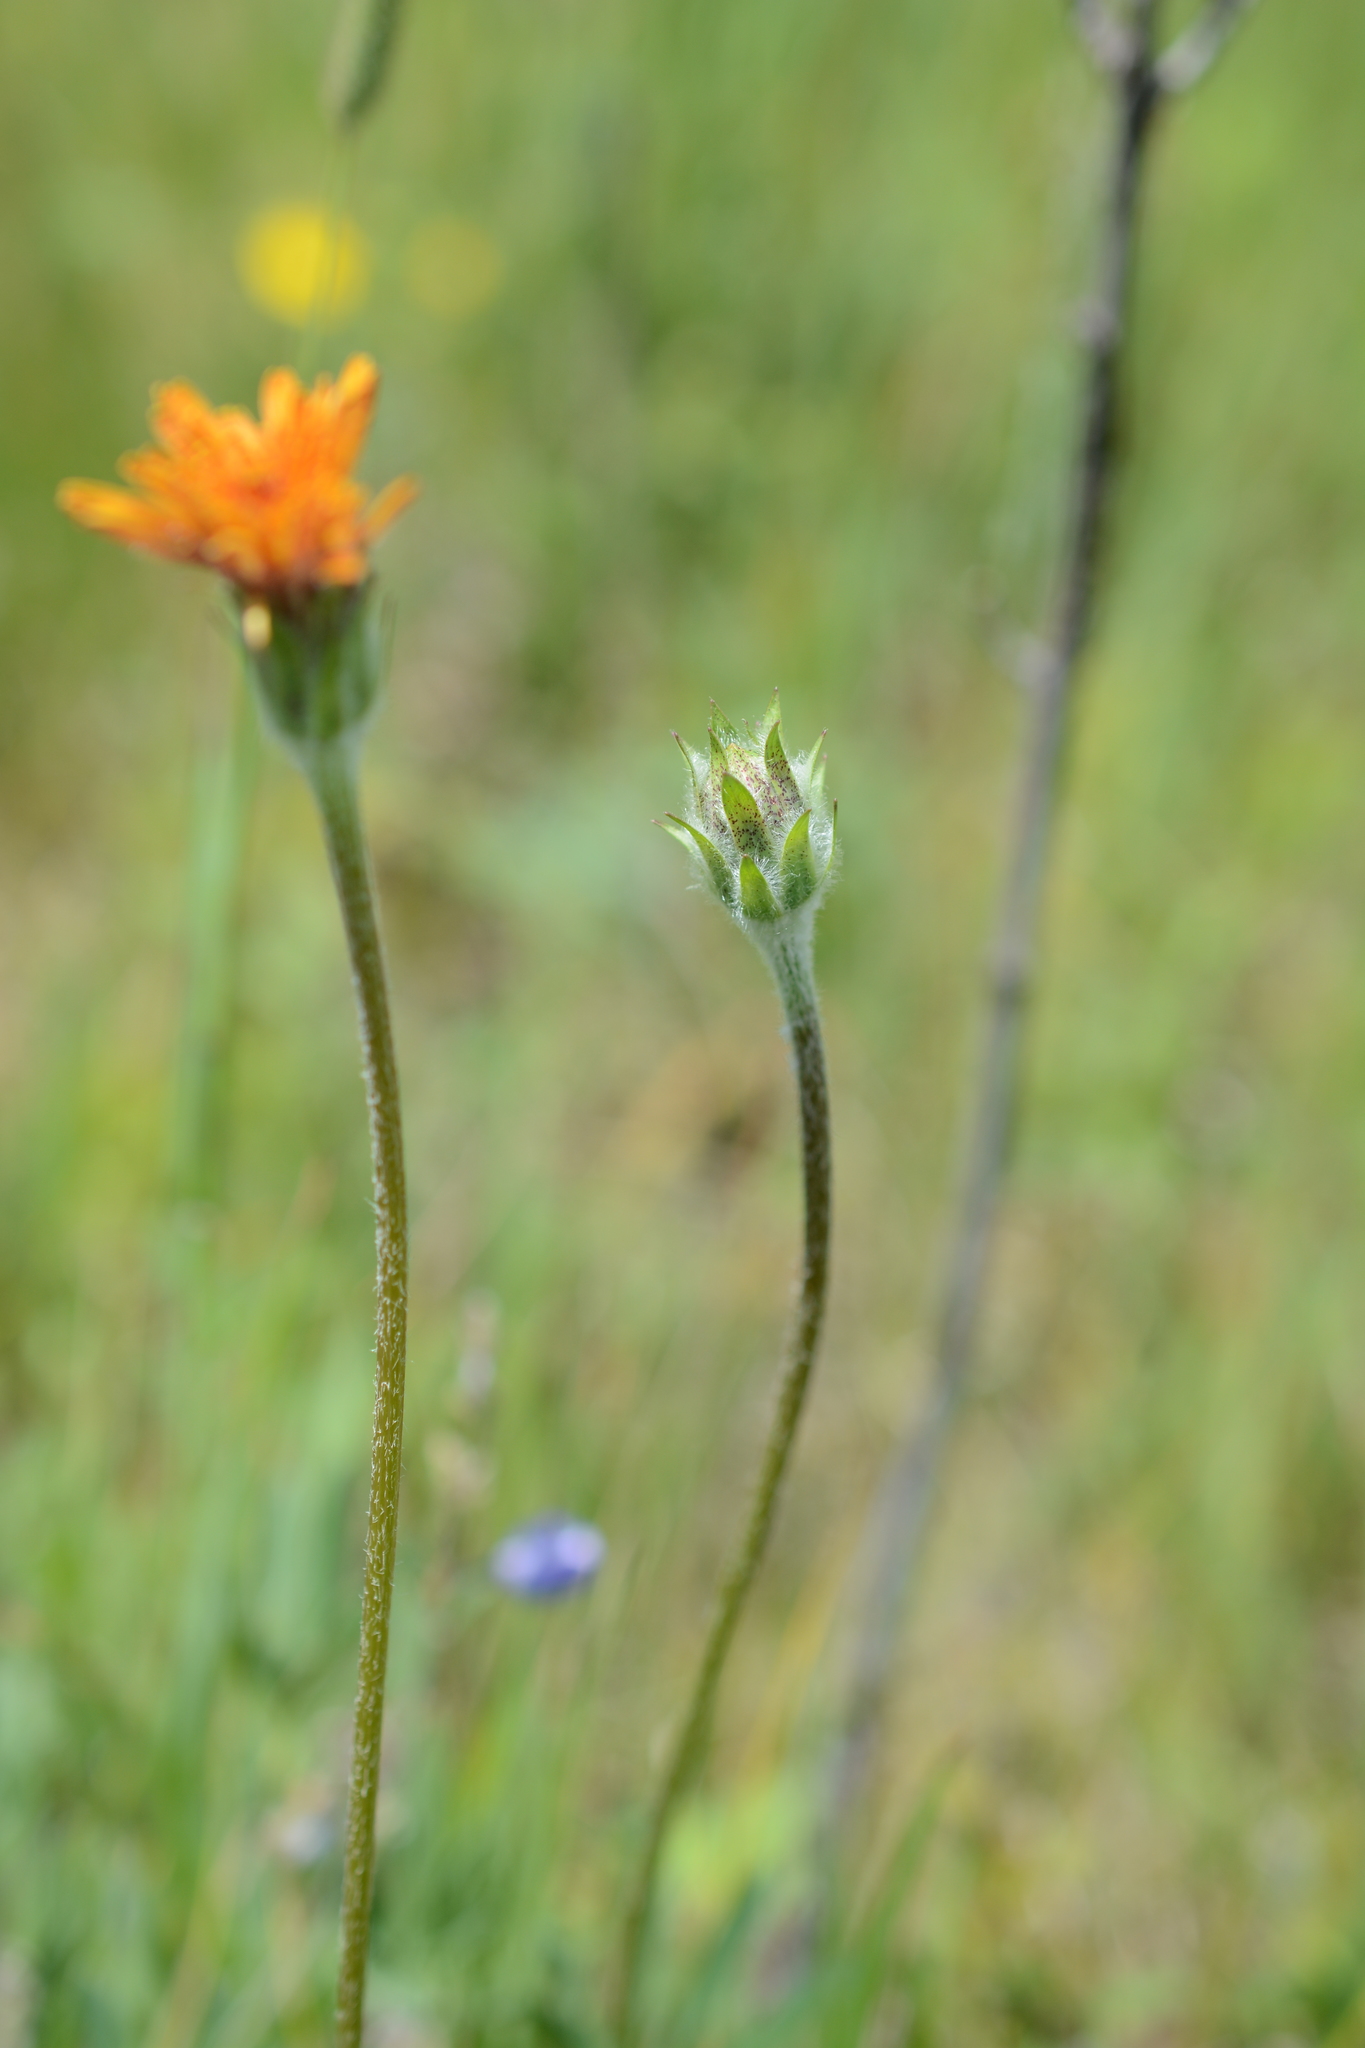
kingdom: Plantae
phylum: Tracheophyta
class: Magnoliopsida
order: Asterales
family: Asteraceae
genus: Agoseris
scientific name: Agoseris aurantiaca
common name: Mountain agoseris
